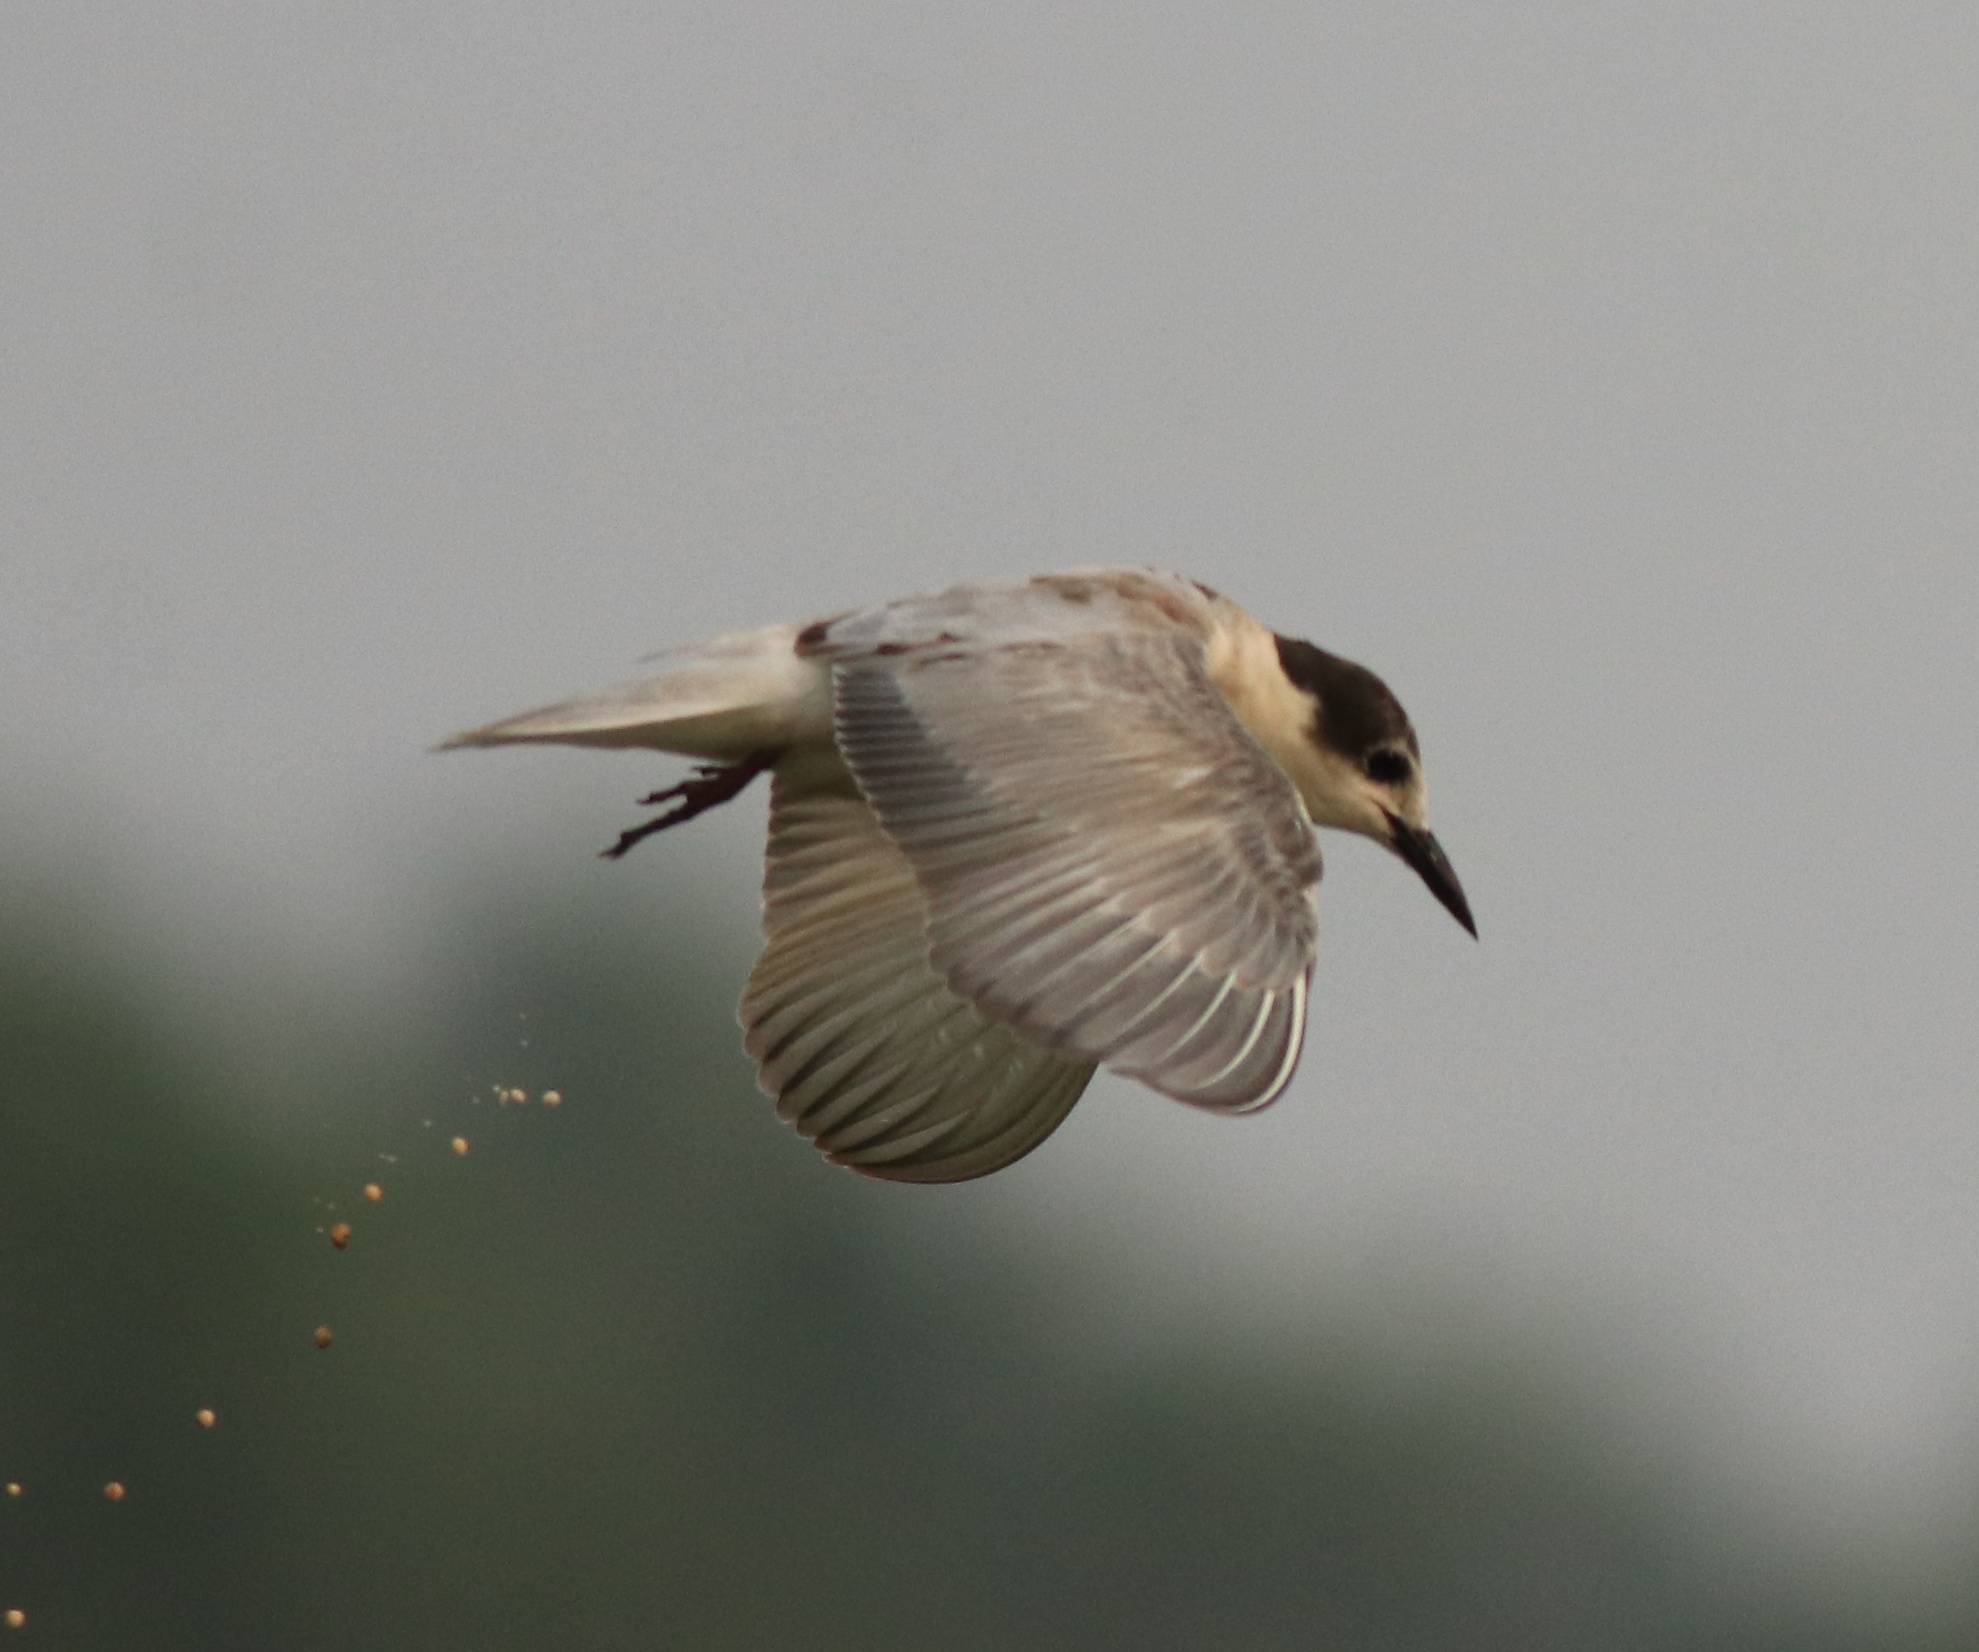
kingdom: Animalia
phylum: Chordata
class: Aves
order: Charadriiformes
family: Laridae
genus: Chlidonias
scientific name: Chlidonias hybrida
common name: Whiskered tern
